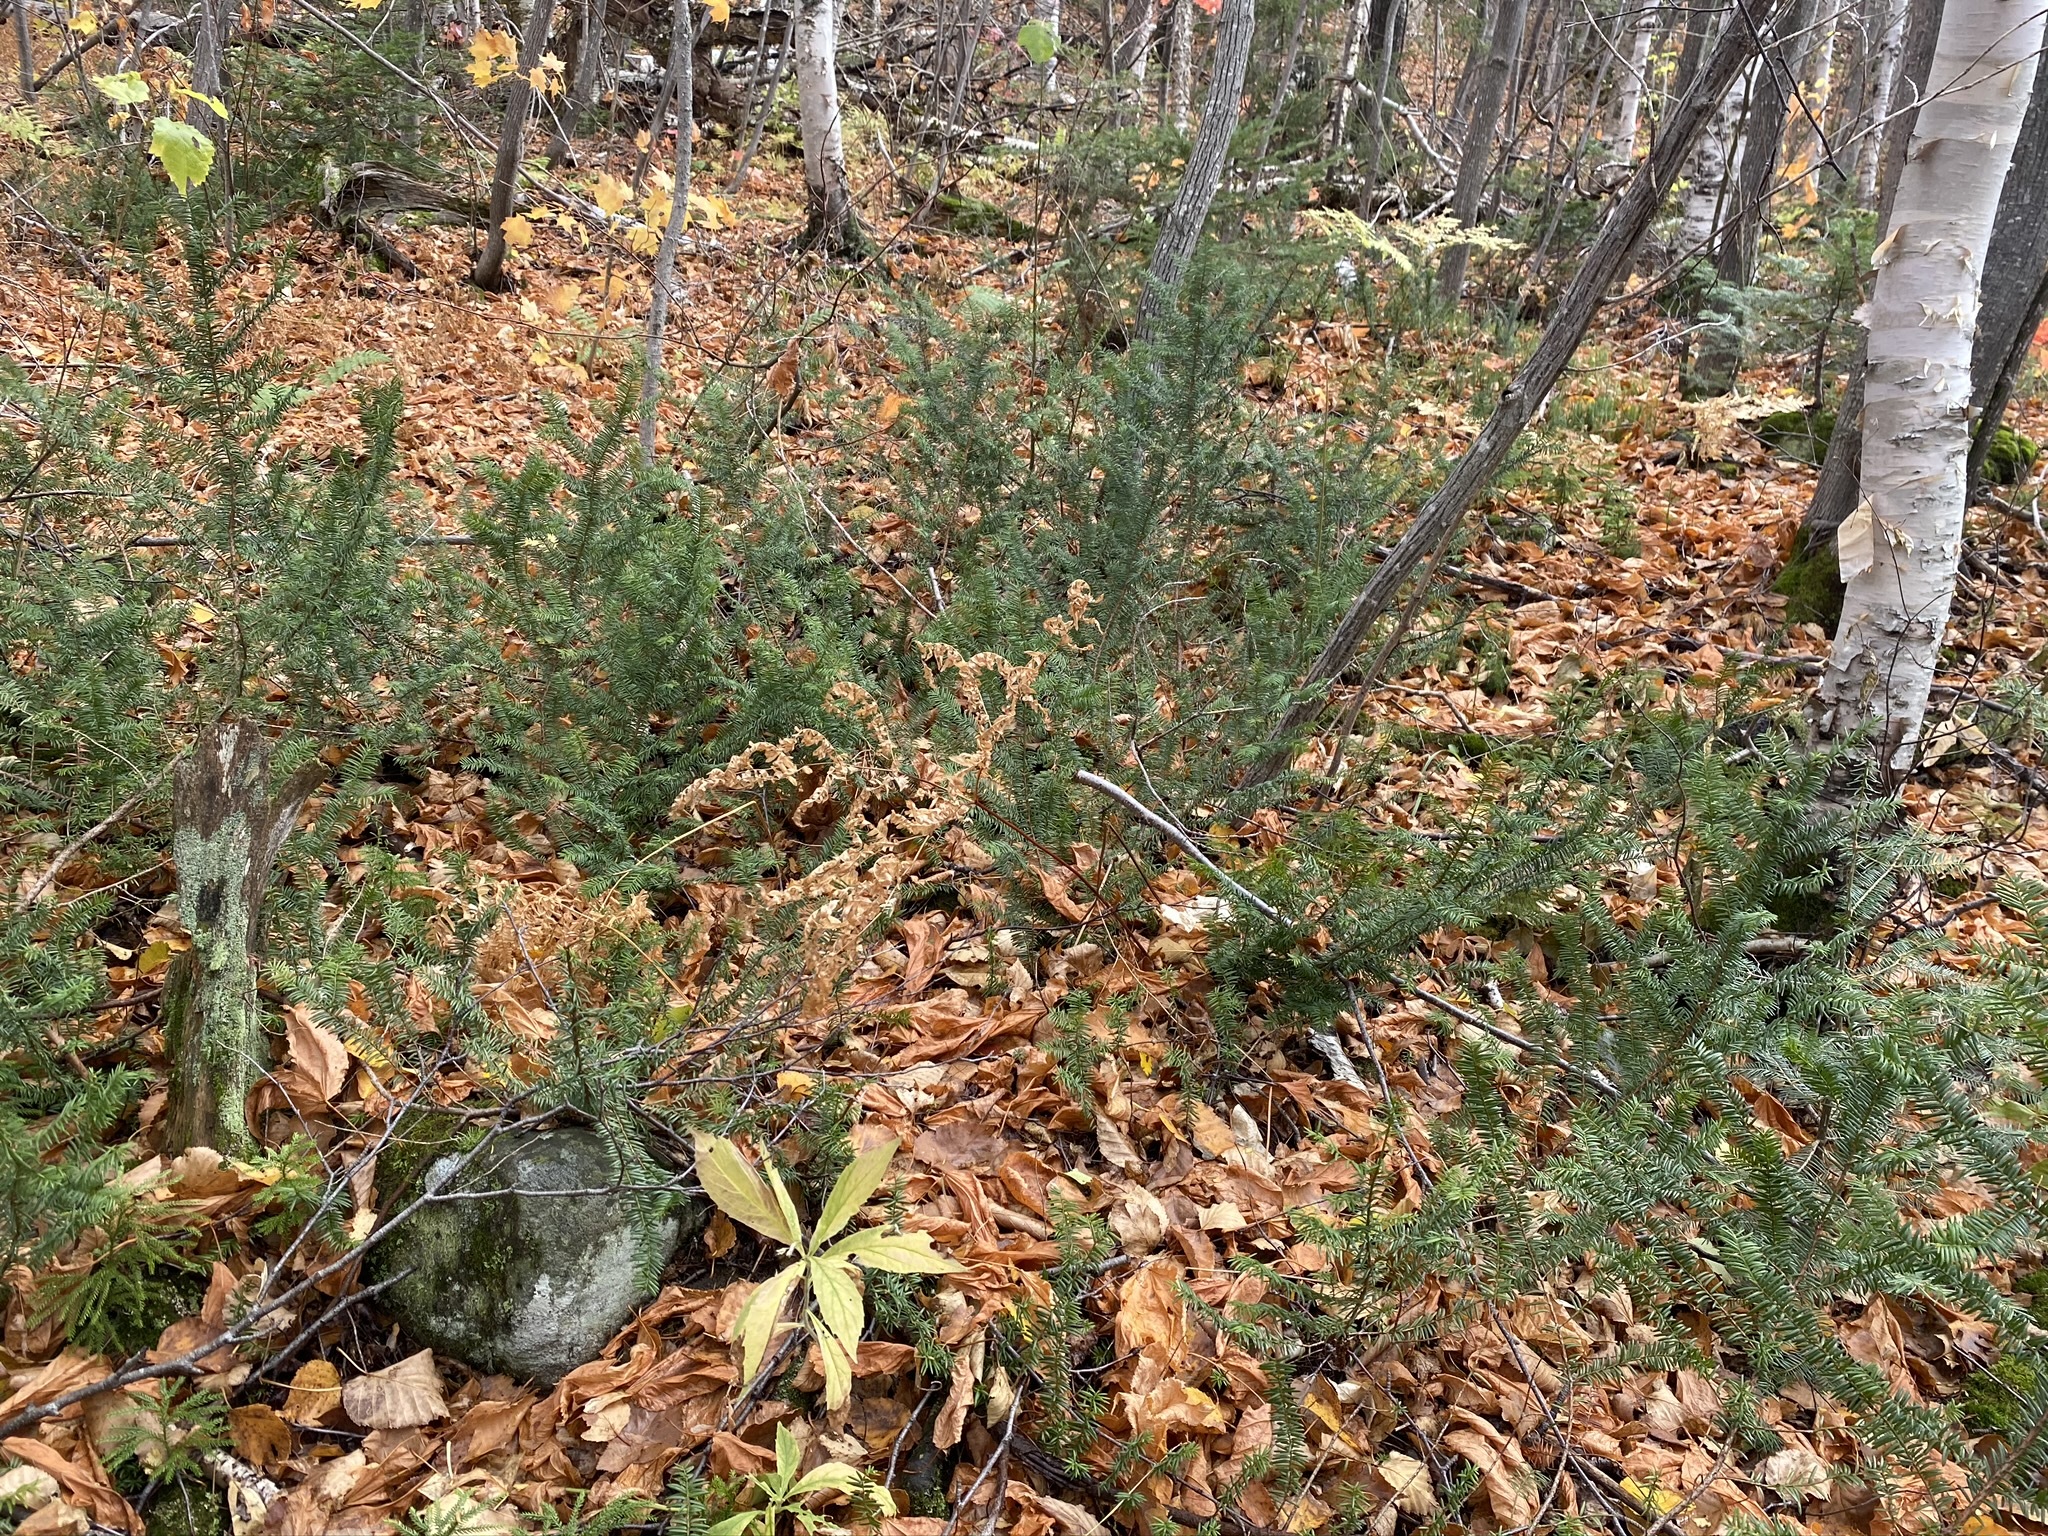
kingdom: Plantae
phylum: Tracheophyta
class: Pinopsida
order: Pinales
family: Taxaceae
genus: Taxus
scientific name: Taxus canadensis
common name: American yew
